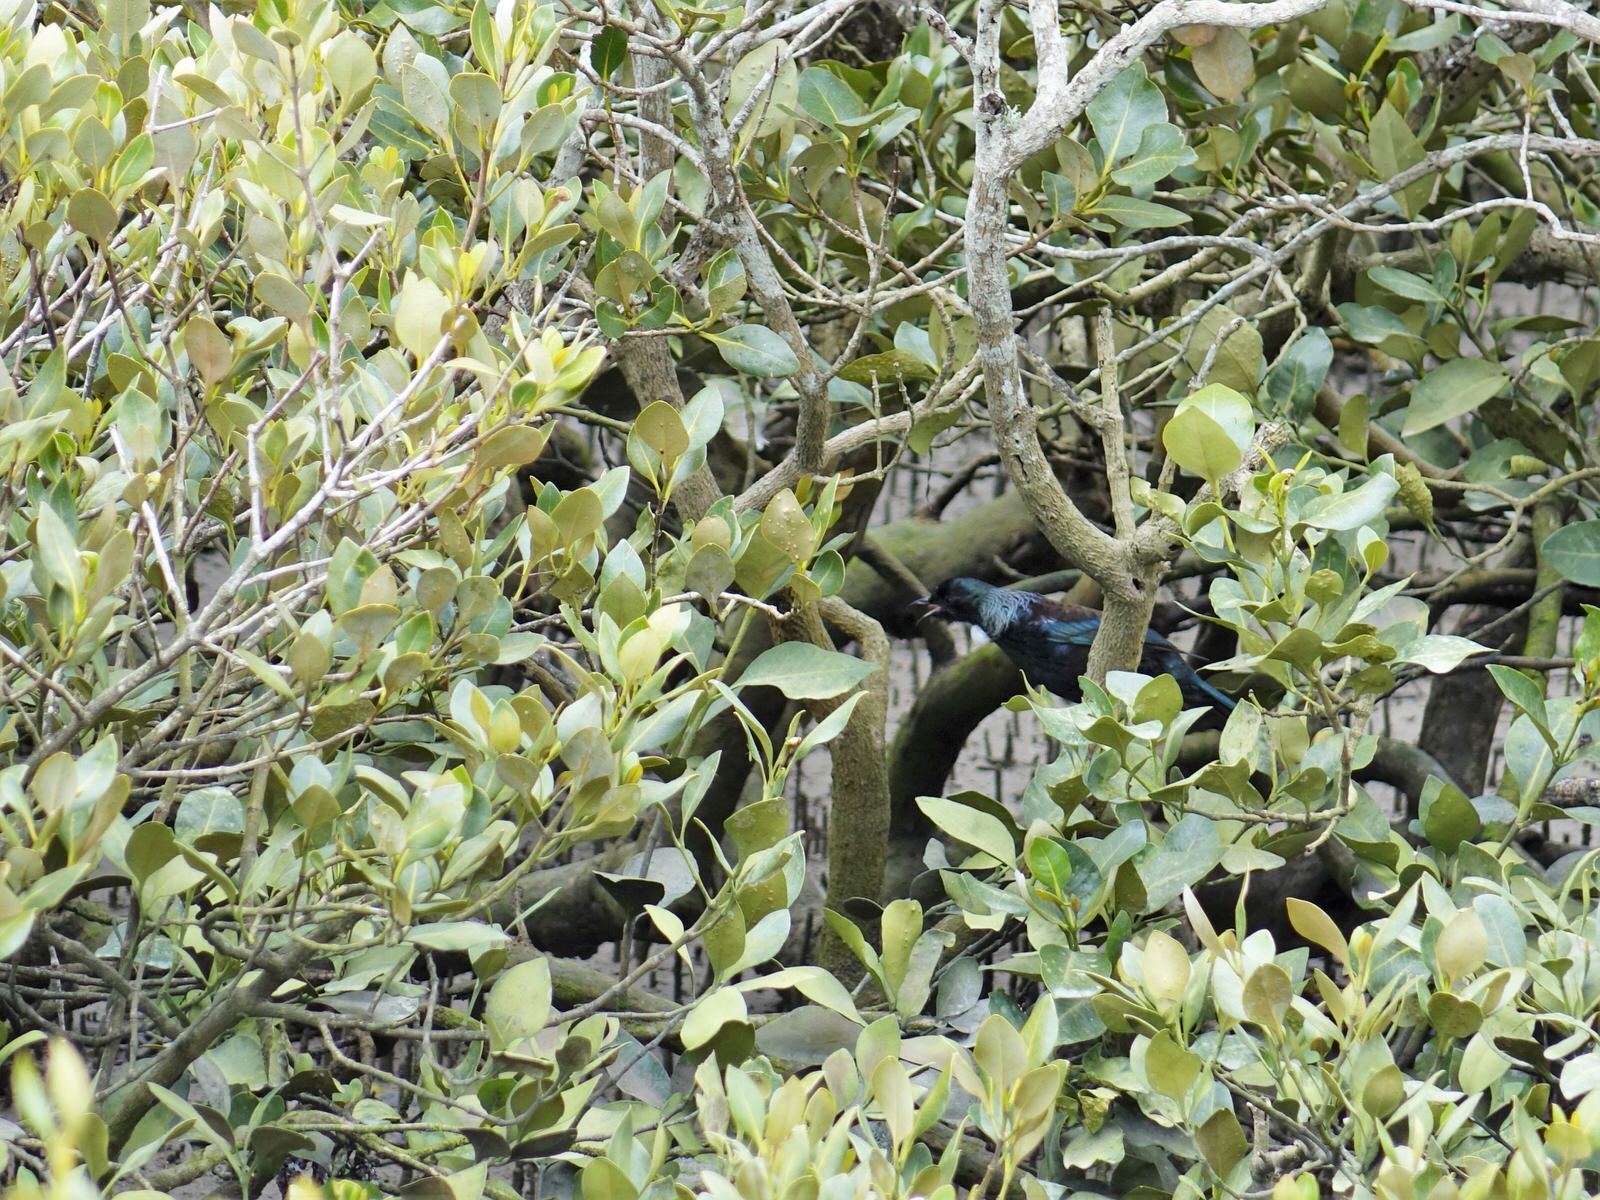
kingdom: Animalia
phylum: Chordata
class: Aves
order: Passeriformes
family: Meliphagidae
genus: Prosthemadera
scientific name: Prosthemadera novaeseelandiae
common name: Tui
